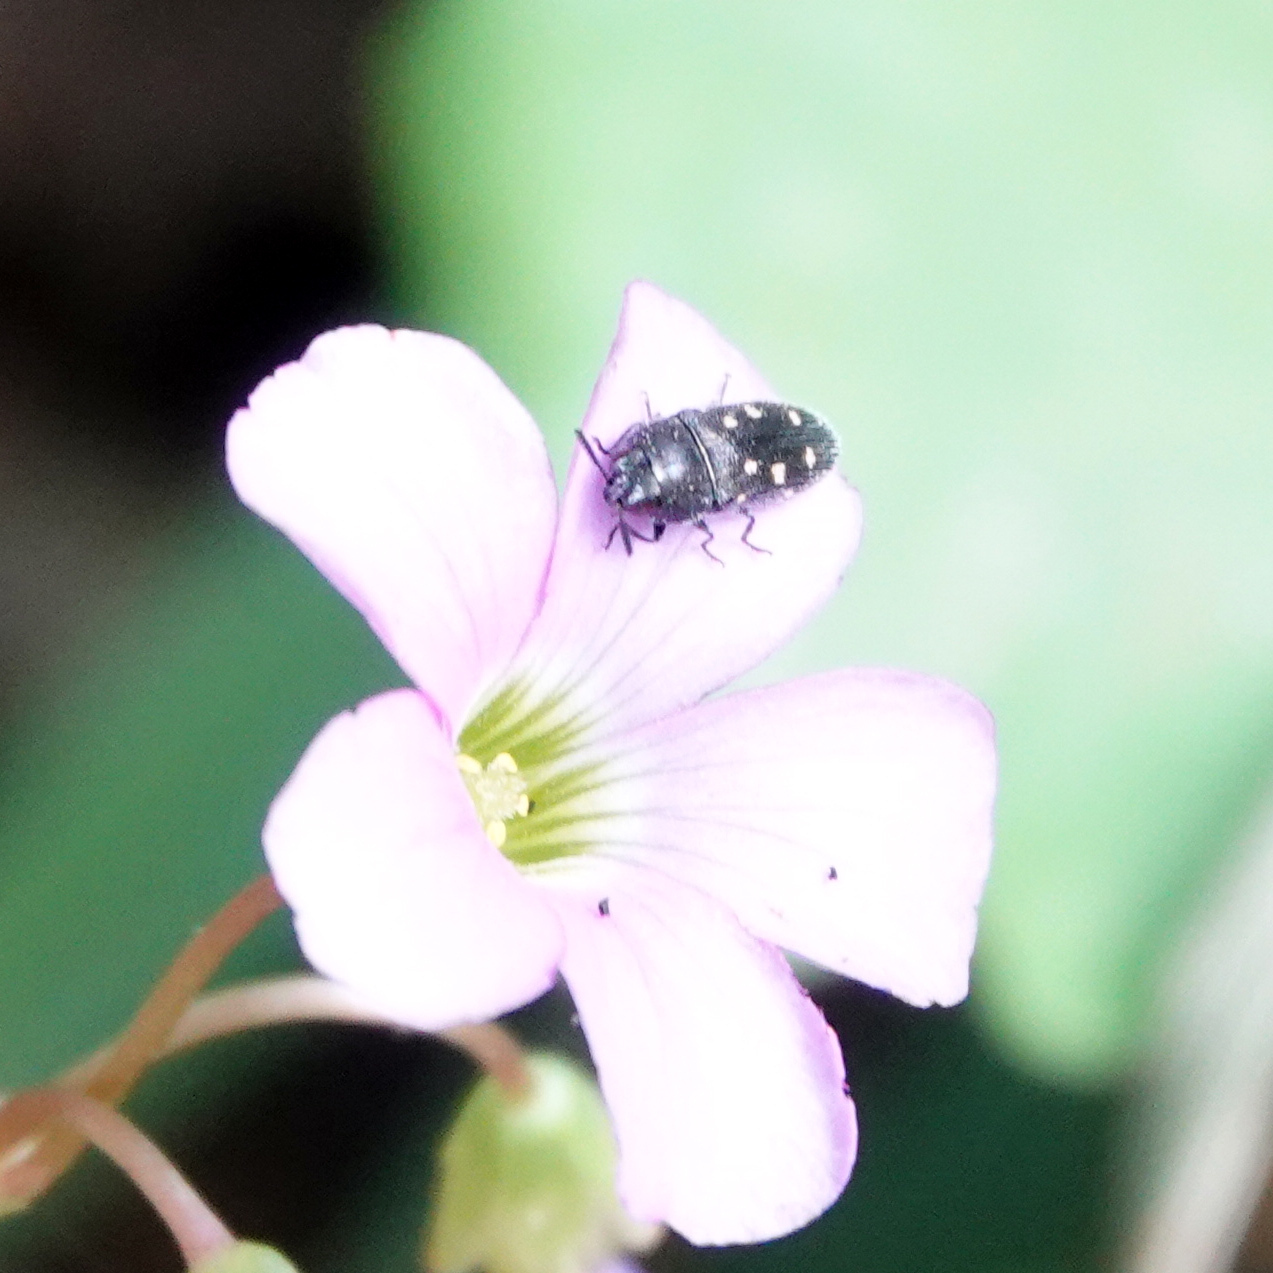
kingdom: Animalia
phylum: Arthropoda
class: Insecta
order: Coleoptera
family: Buprestidae
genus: Acmaeodera
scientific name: Acmaeodera tubulus
